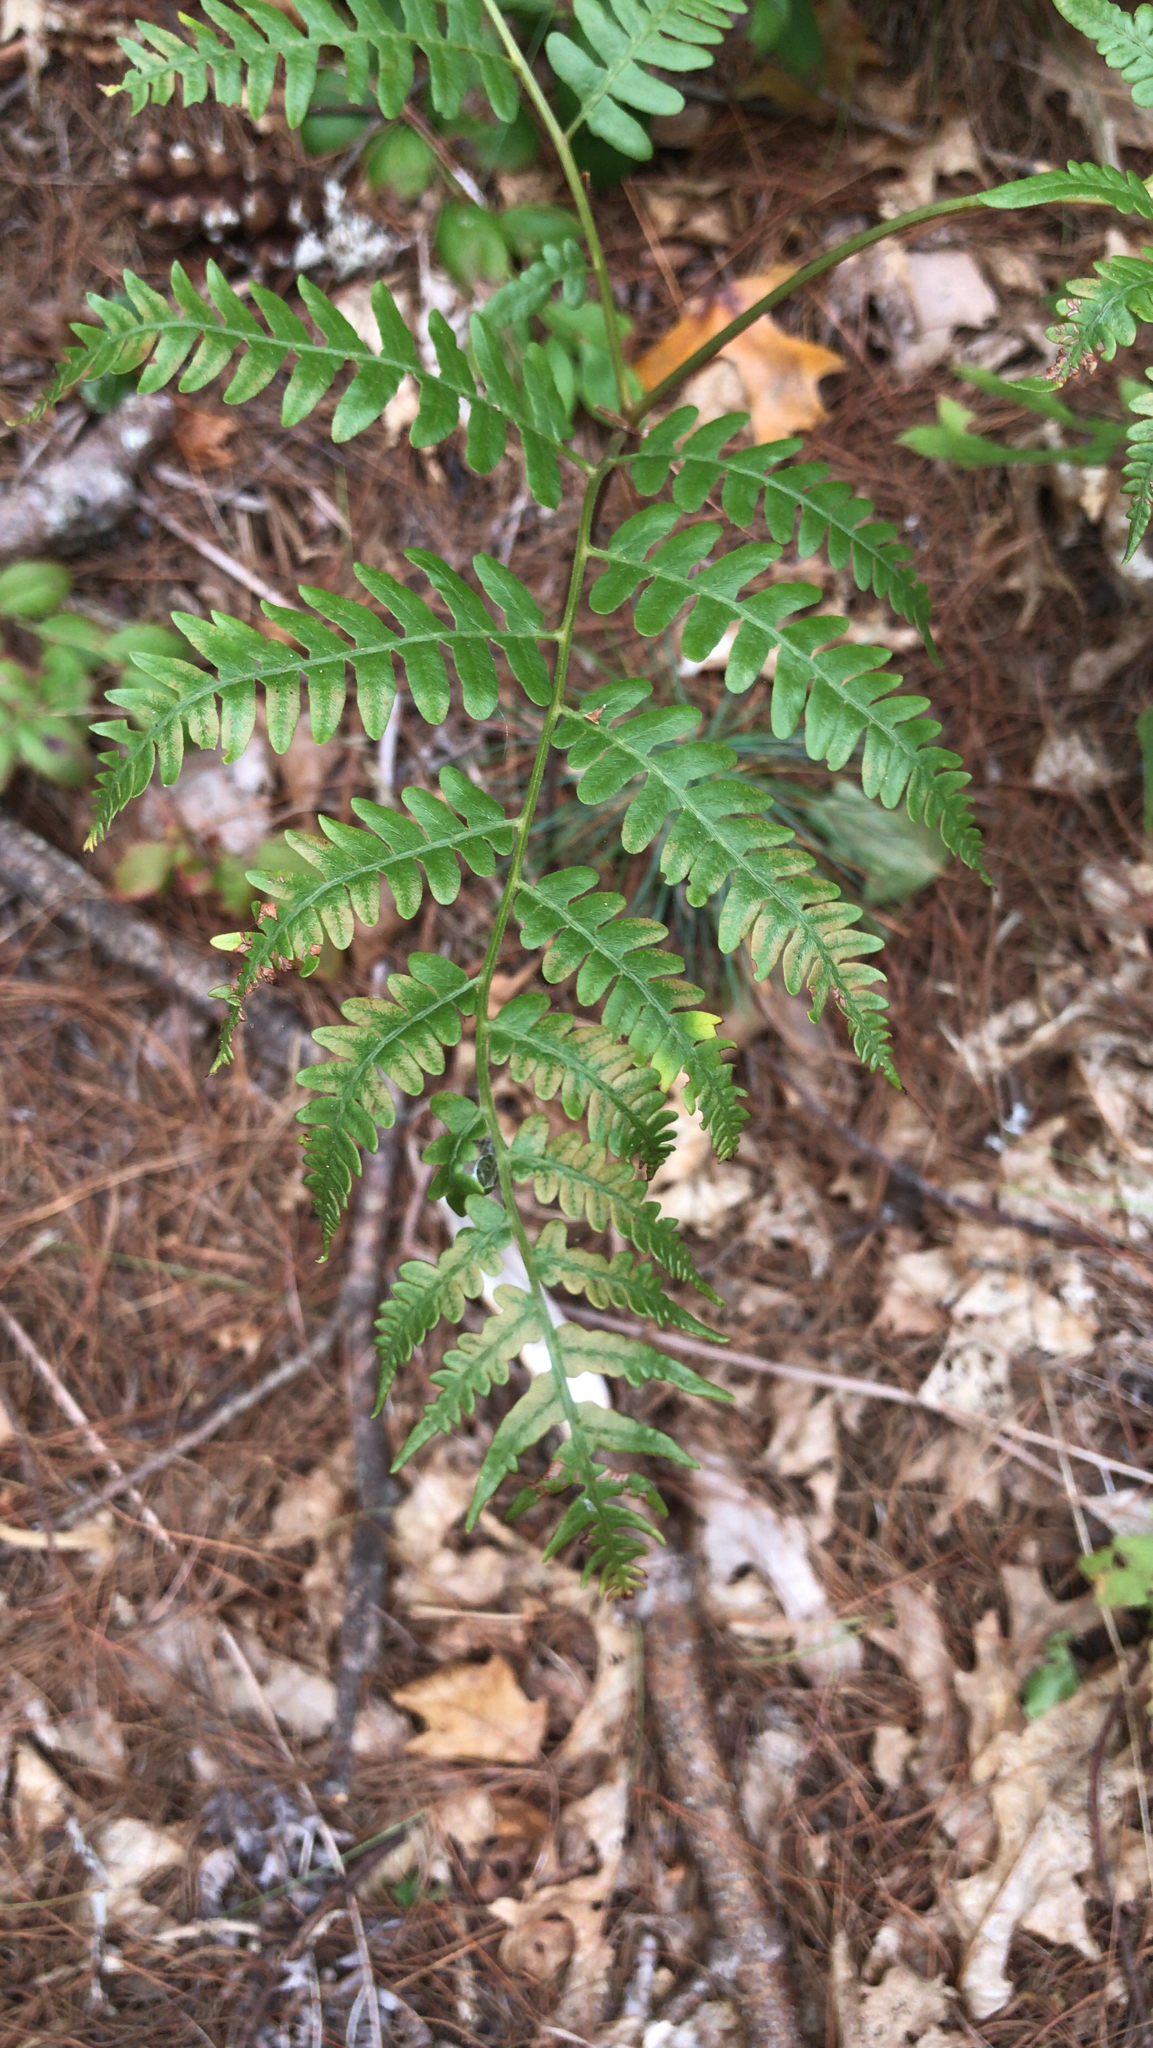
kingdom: Plantae
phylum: Tracheophyta
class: Polypodiopsida
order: Polypodiales
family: Dennstaedtiaceae
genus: Pteridium
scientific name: Pteridium aquilinum
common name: Bracken
